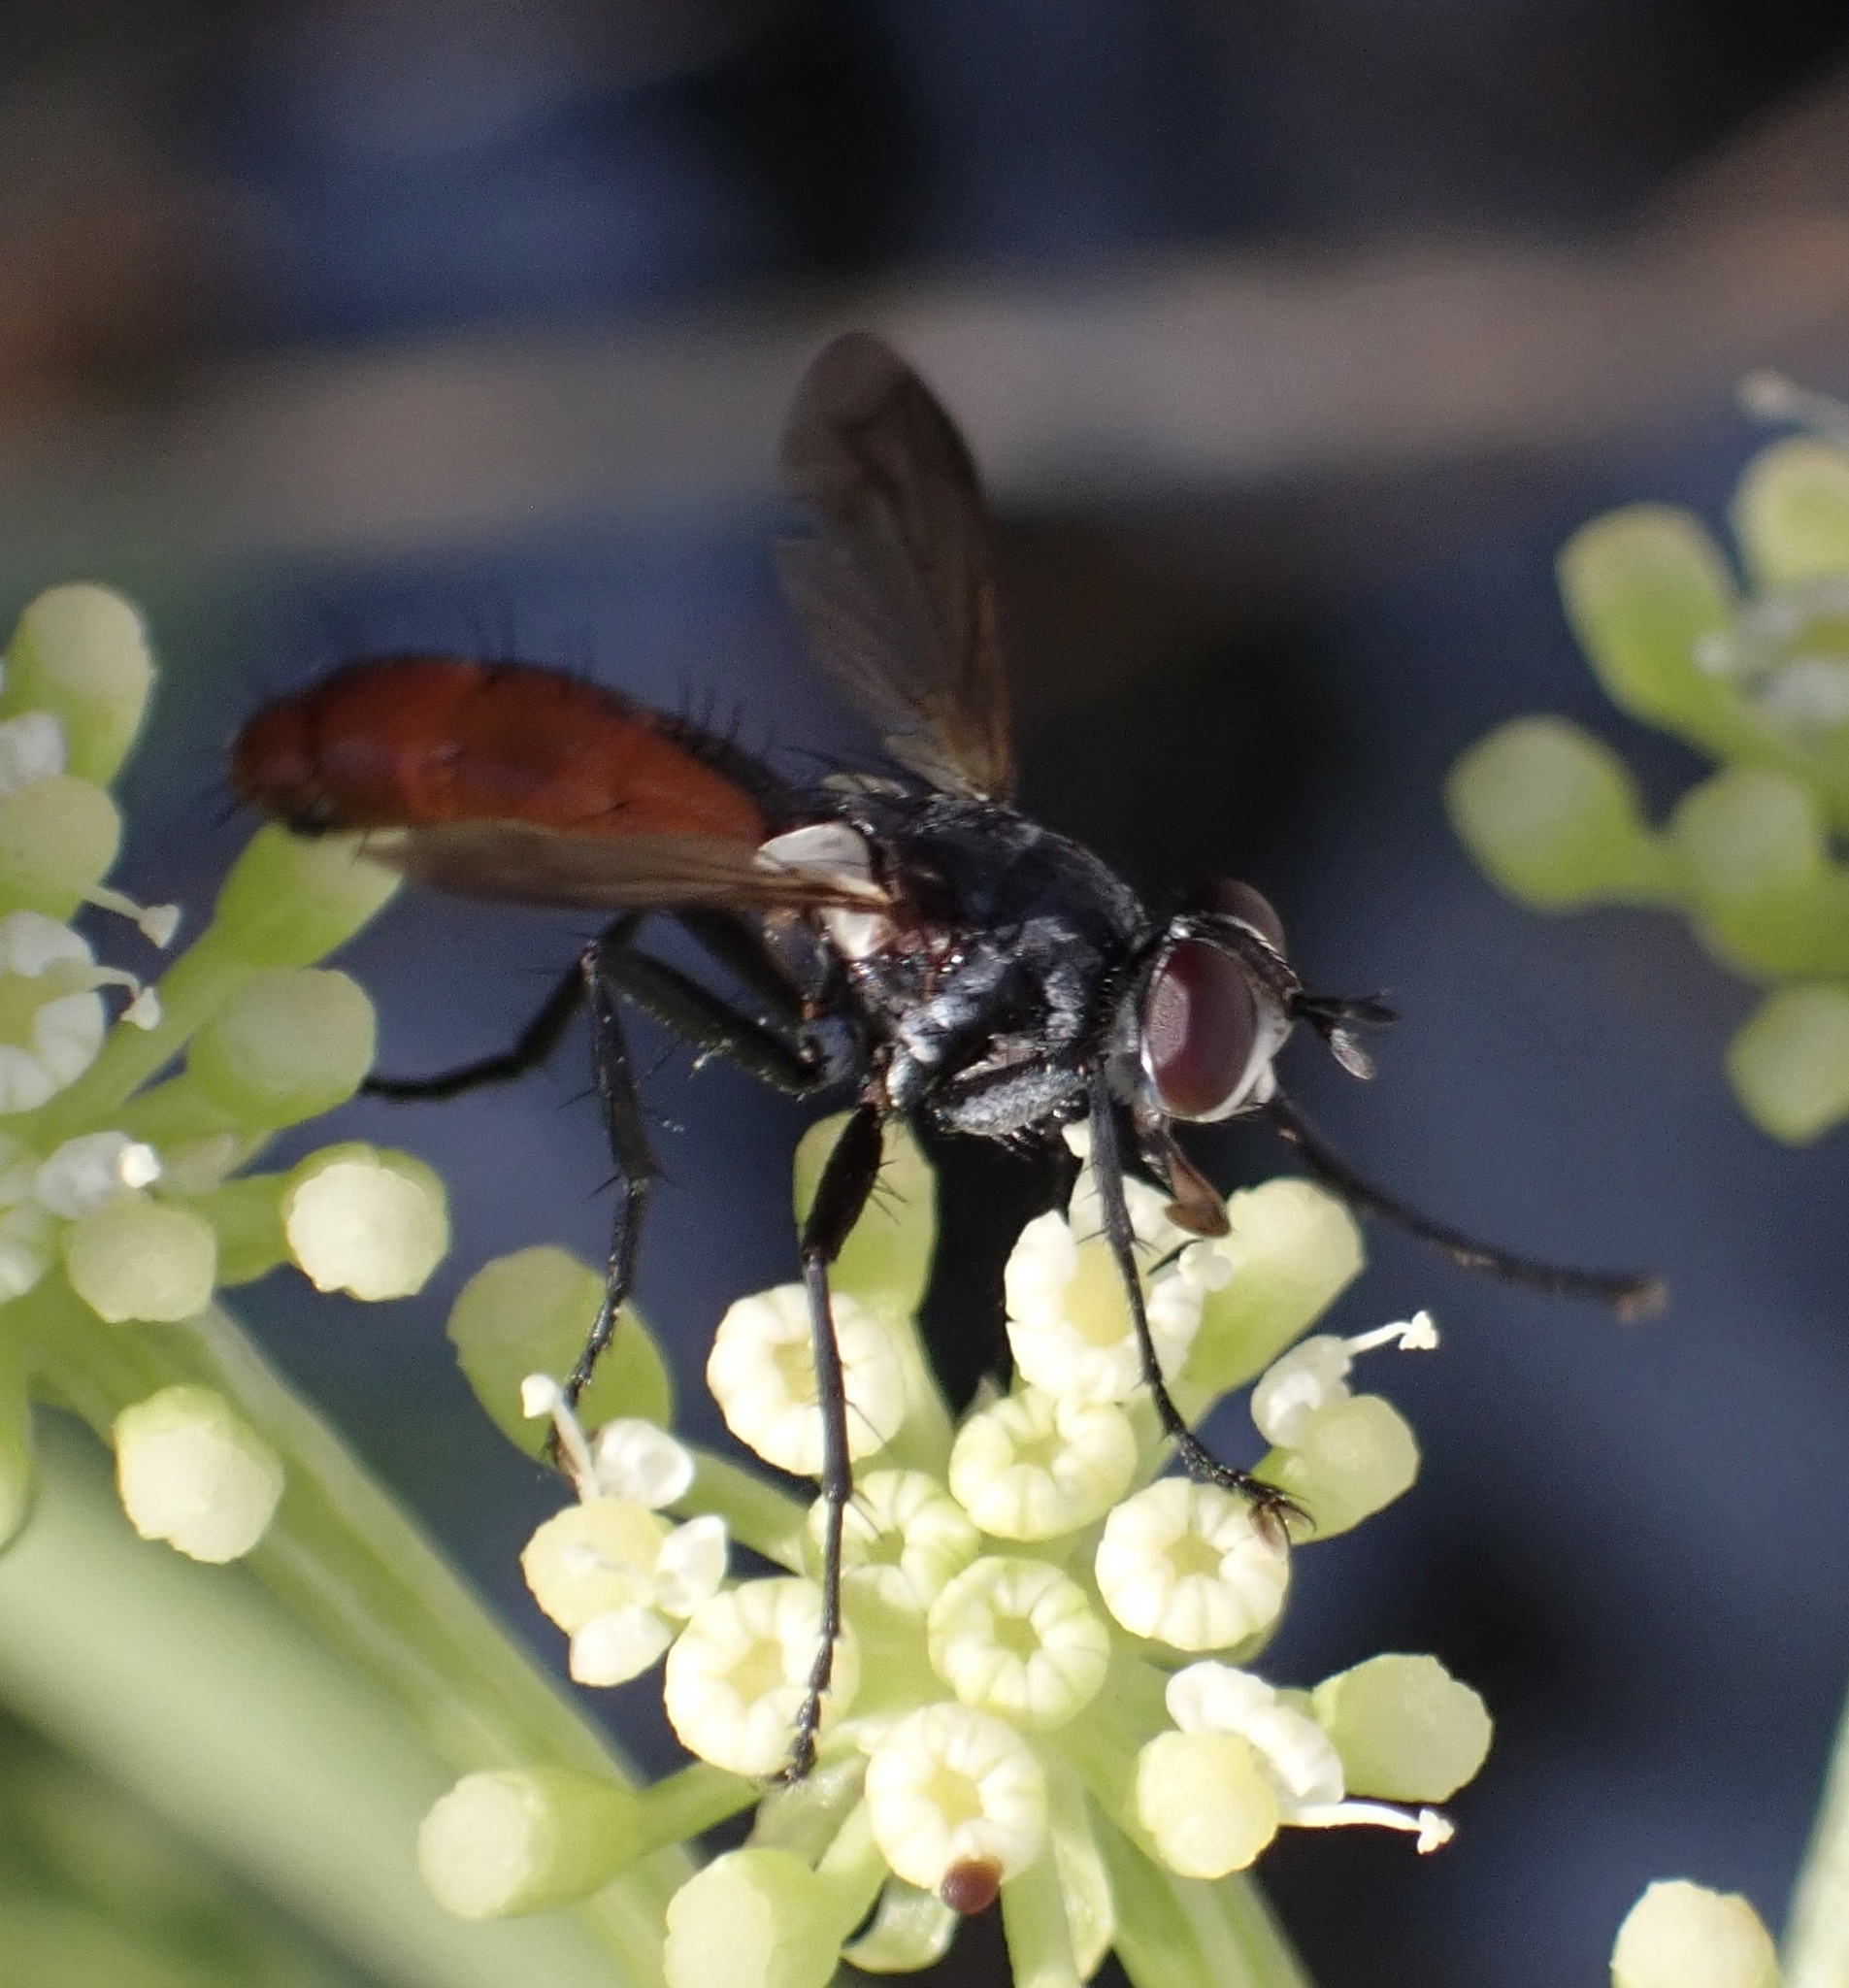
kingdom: Animalia
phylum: Arthropoda
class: Insecta
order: Diptera
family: Tachinidae
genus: Cylindromyia
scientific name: Cylindromyia bicolor
